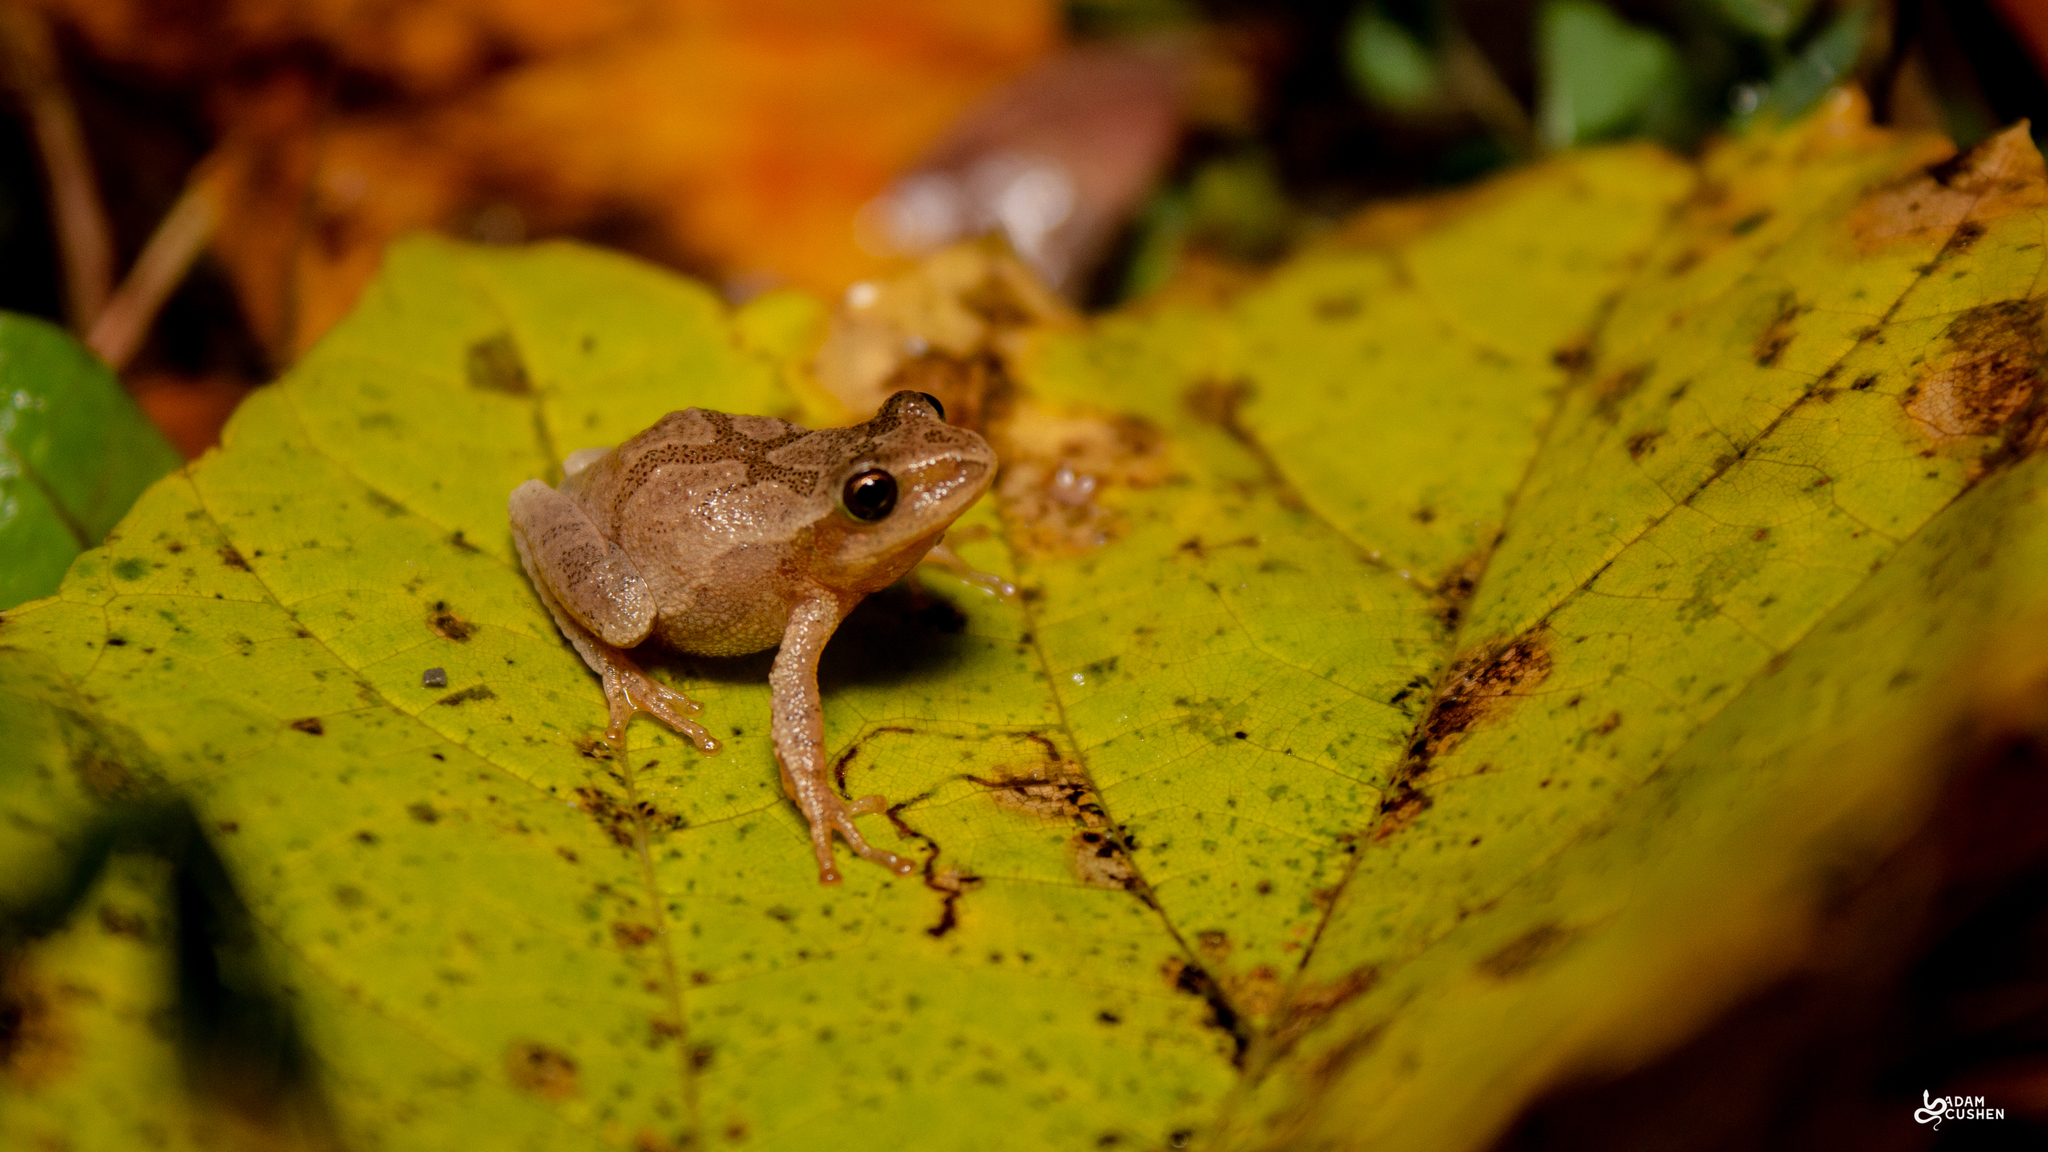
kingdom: Animalia
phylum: Chordata
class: Amphibia
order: Anura
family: Hylidae
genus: Pseudacris
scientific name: Pseudacris crucifer
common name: Spring peeper
